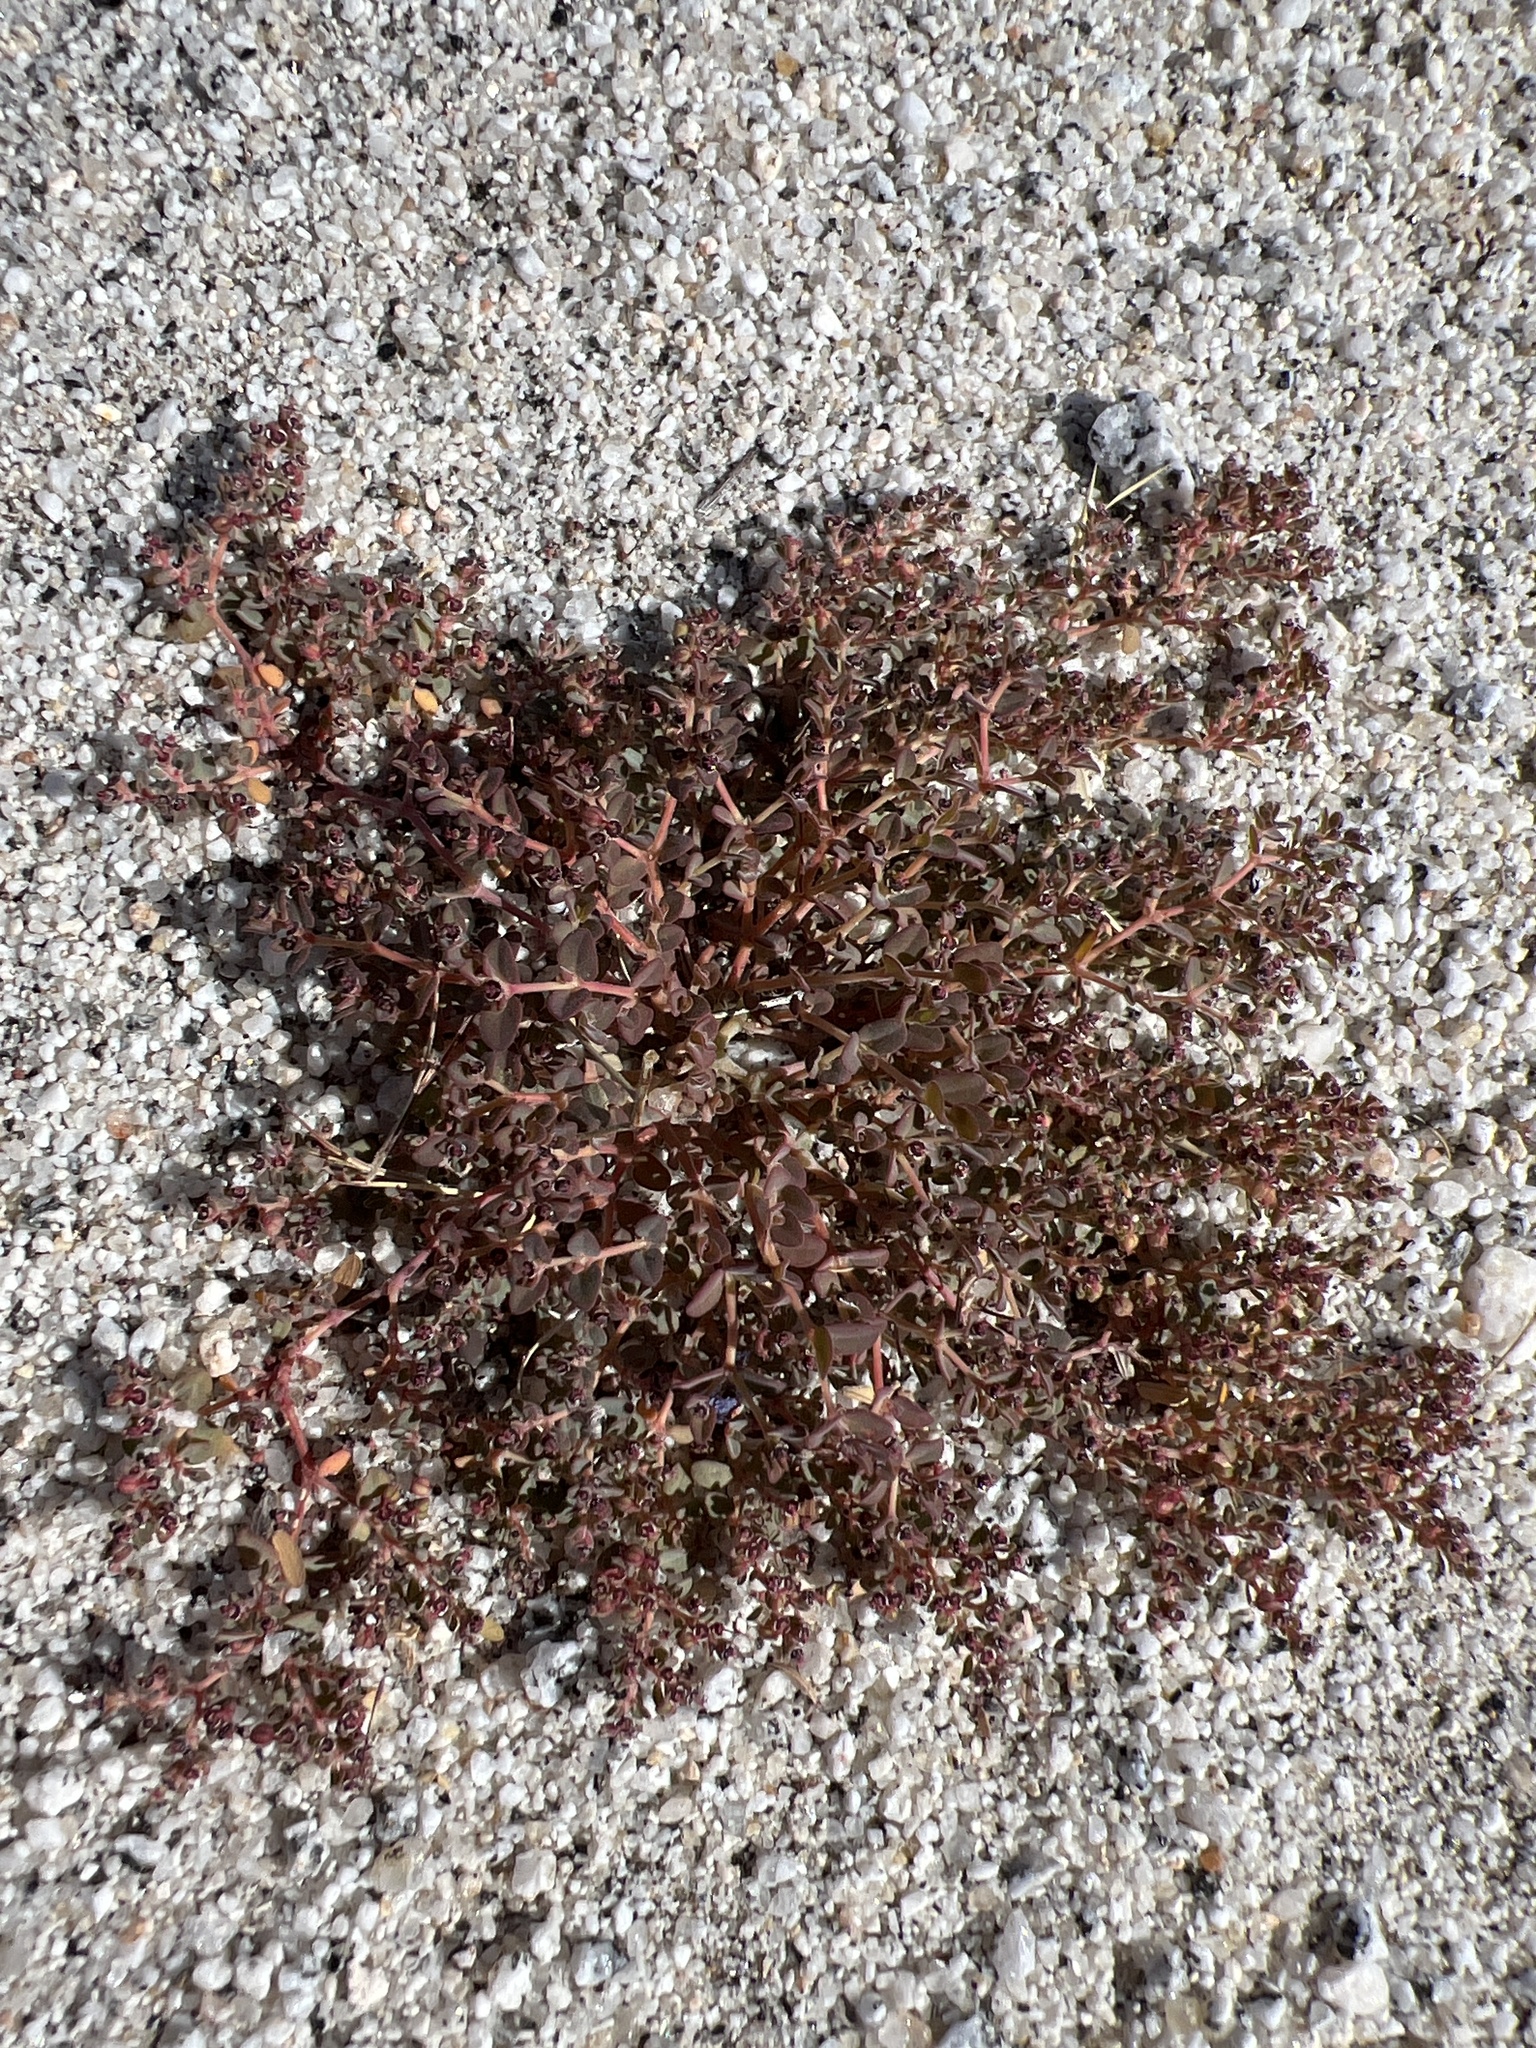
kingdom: Plantae
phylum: Tracheophyta
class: Magnoliopsida
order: Malpighiales
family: Euphorbiaceae
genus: Euphorbia
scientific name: Euphorbia polycarpa
